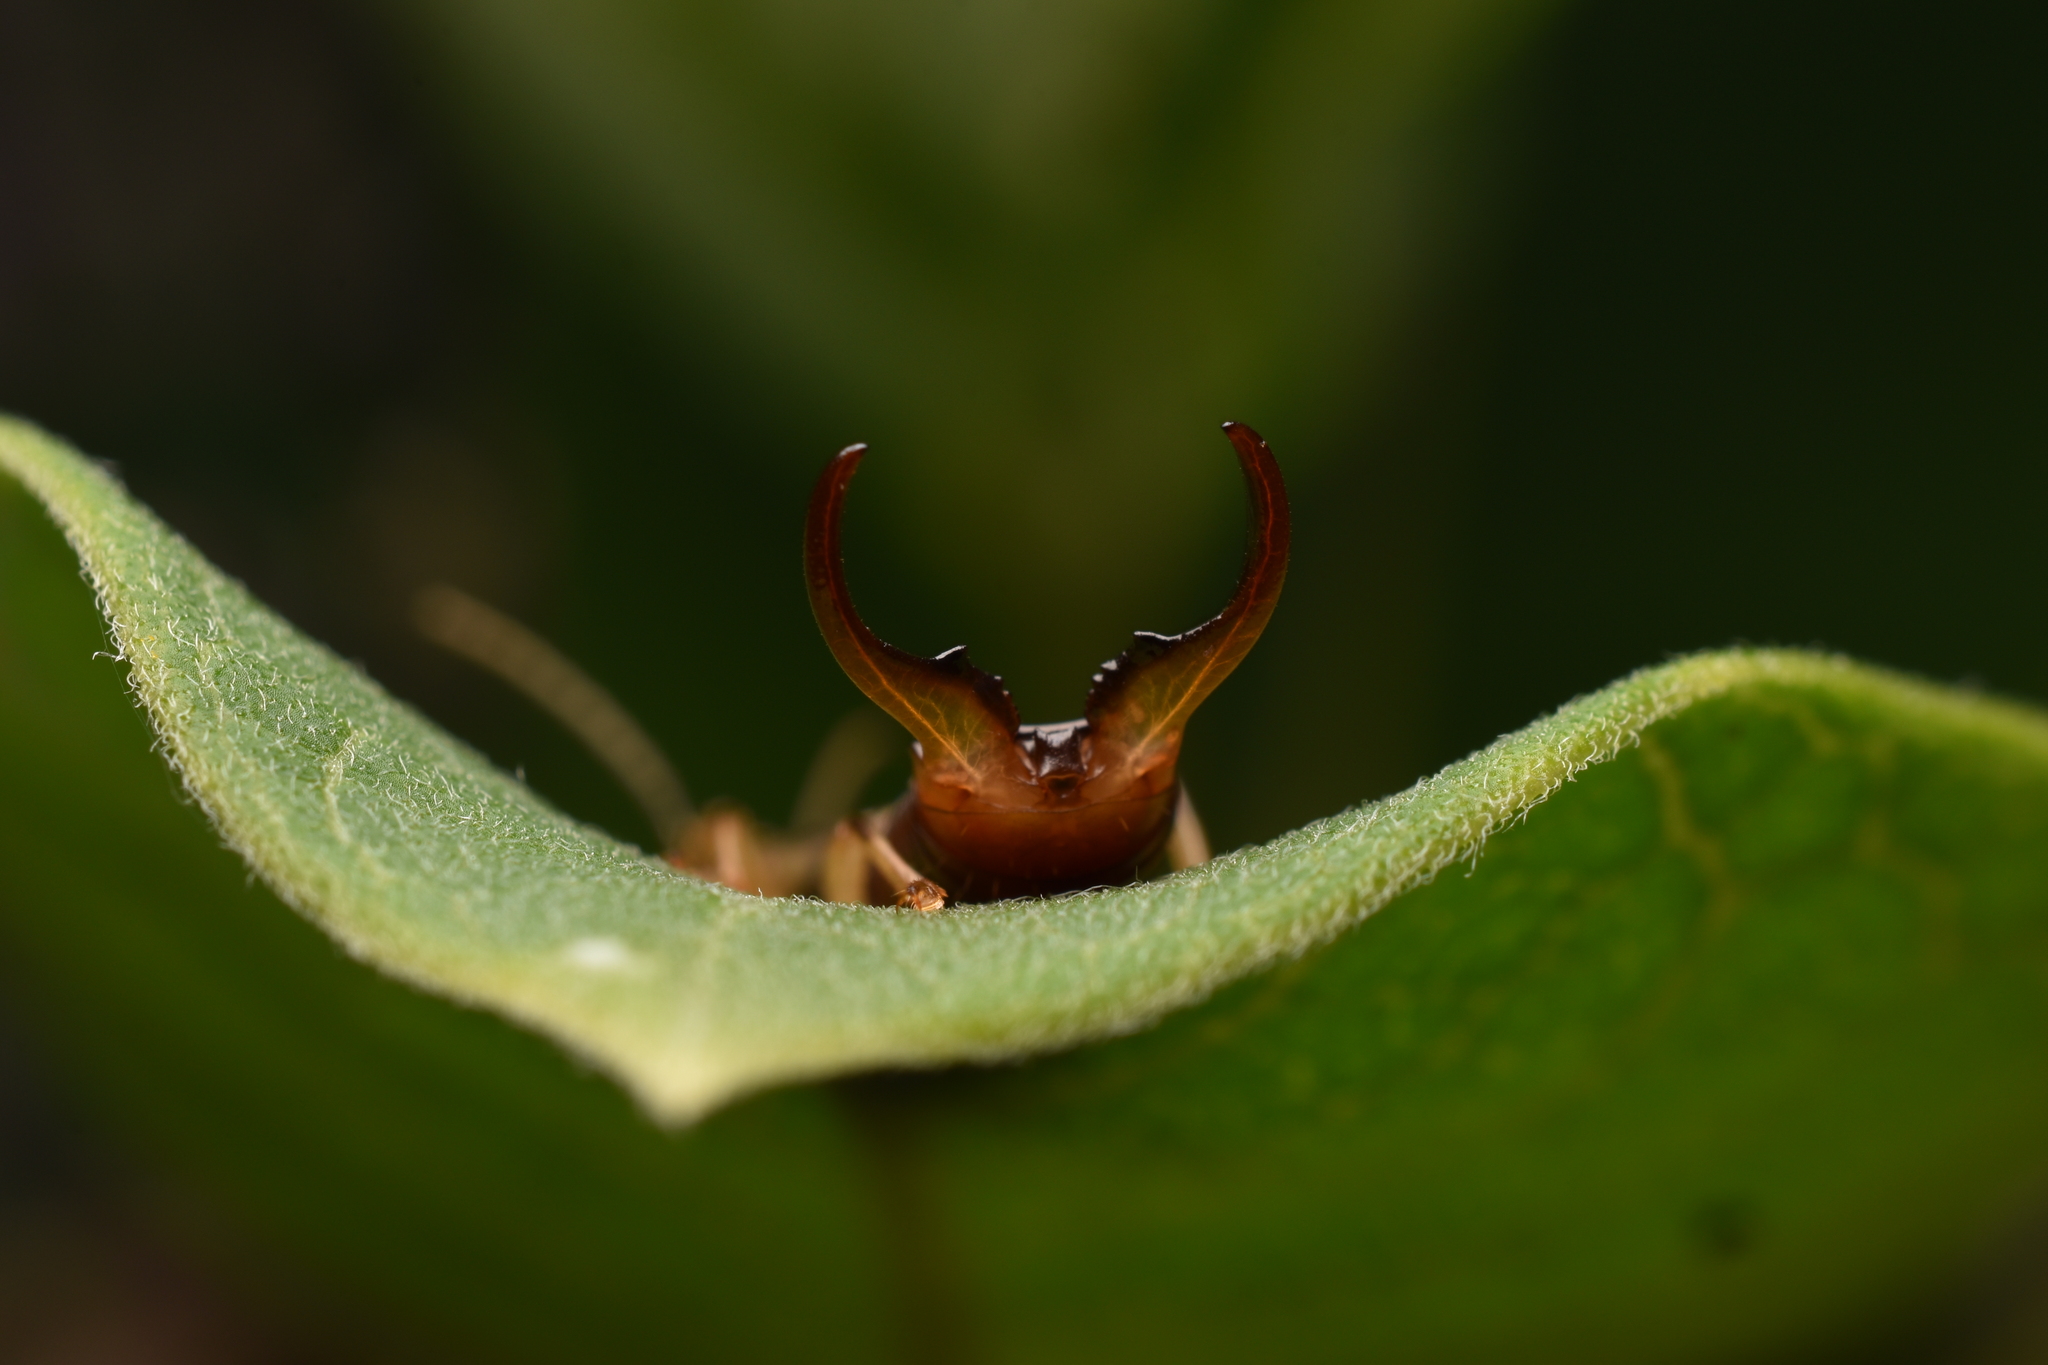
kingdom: Animalia
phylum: Arthropoda
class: Insecta
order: Dermaptera
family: Forficulidae
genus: Forficula
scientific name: Forficula
